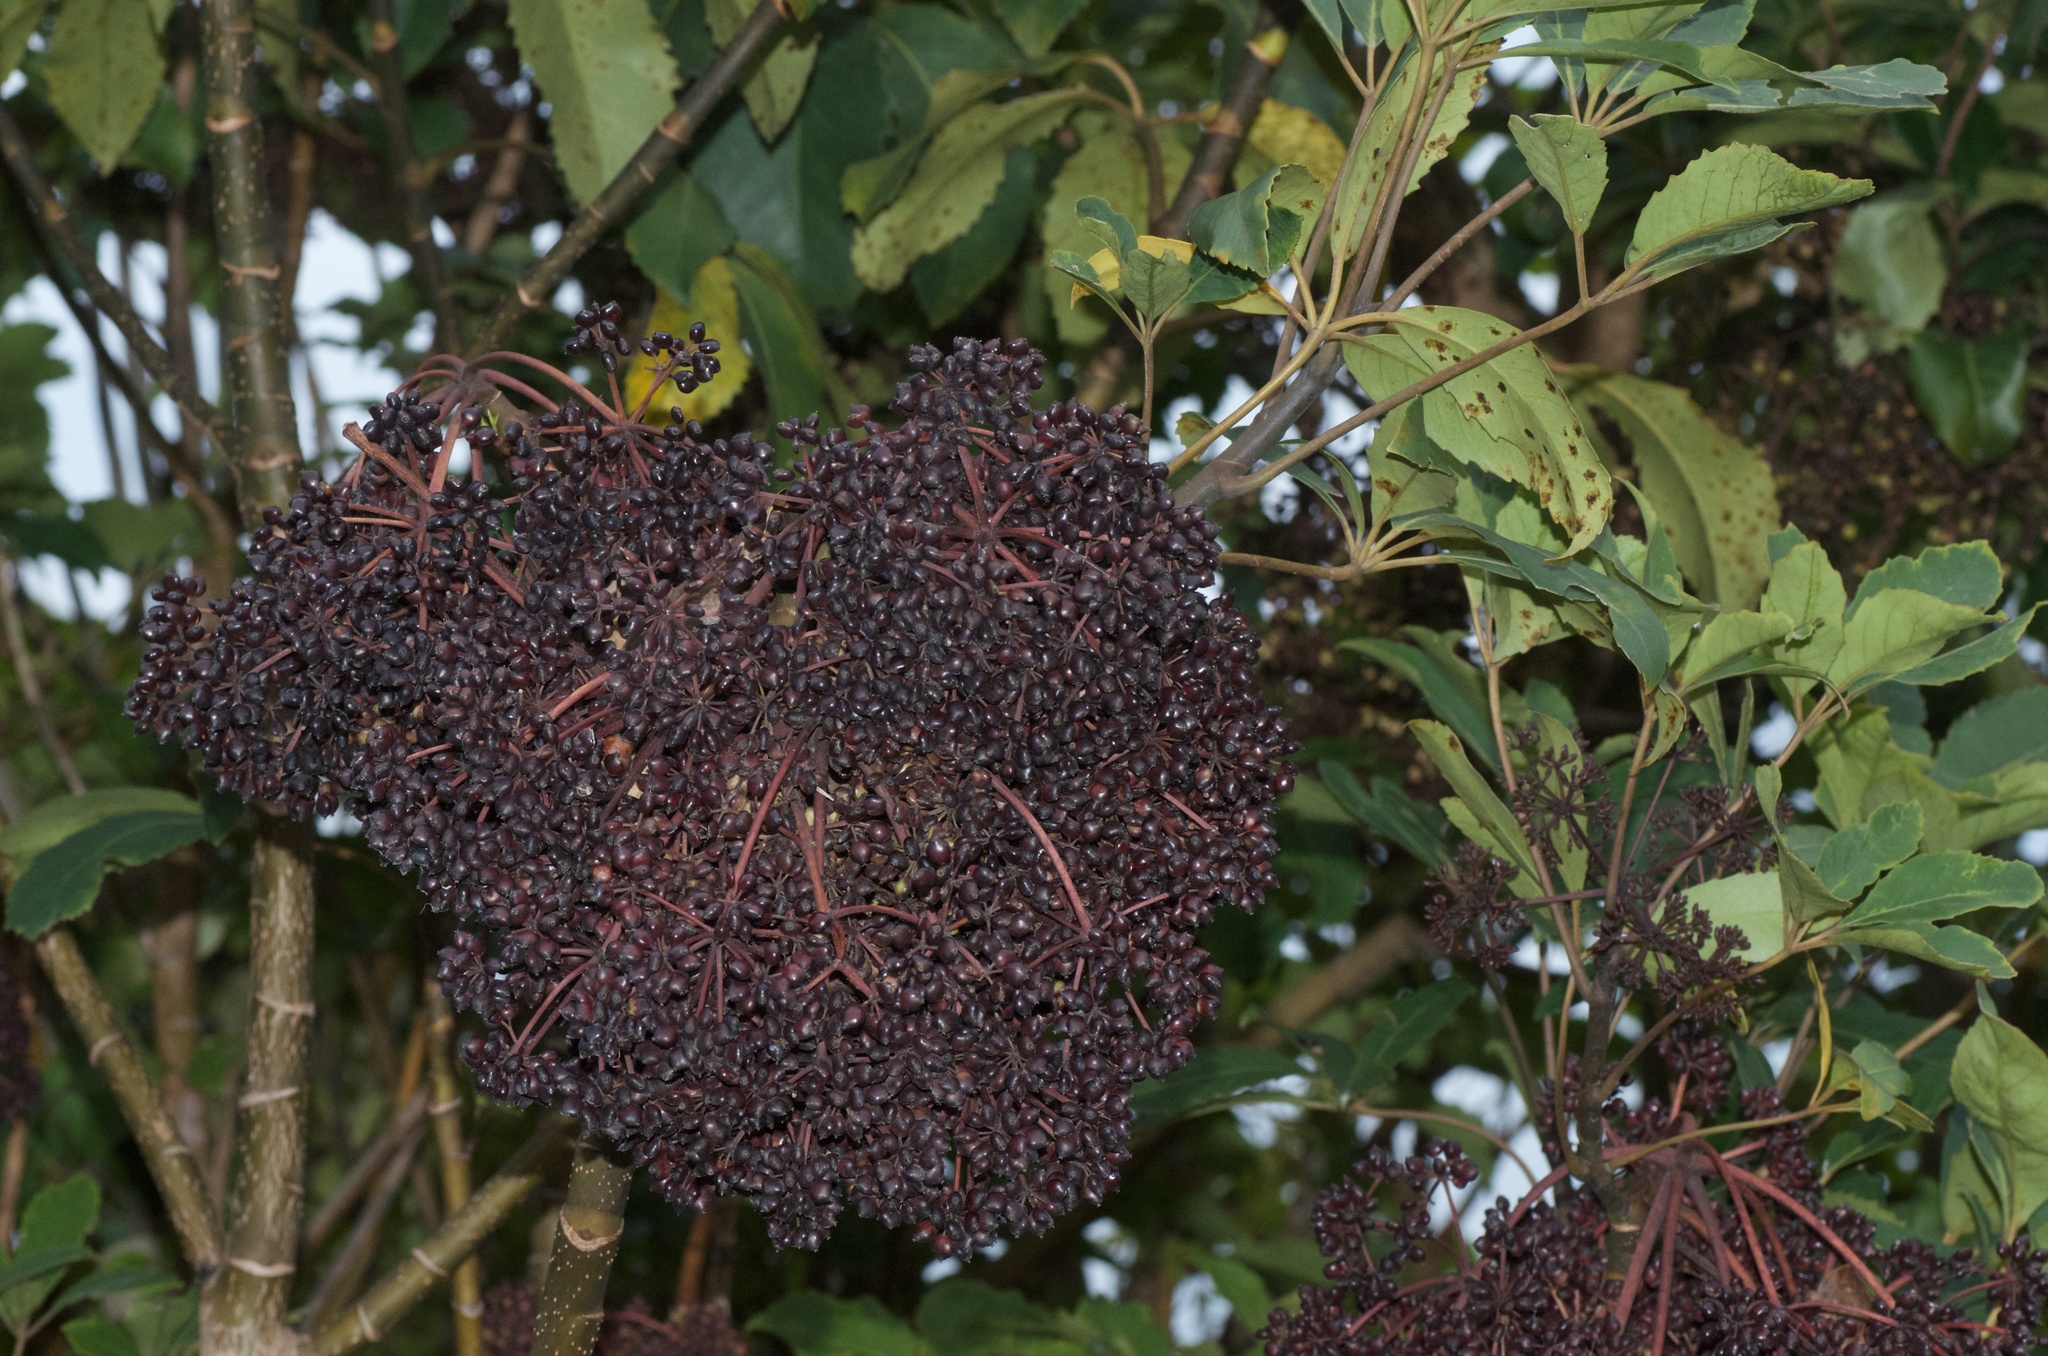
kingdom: Plantae
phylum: Tracheophyta
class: Magnoliopsida
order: Apiales
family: Araliaceae
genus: Neopanax
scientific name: Neopanax arboreus
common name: Five-fingers
